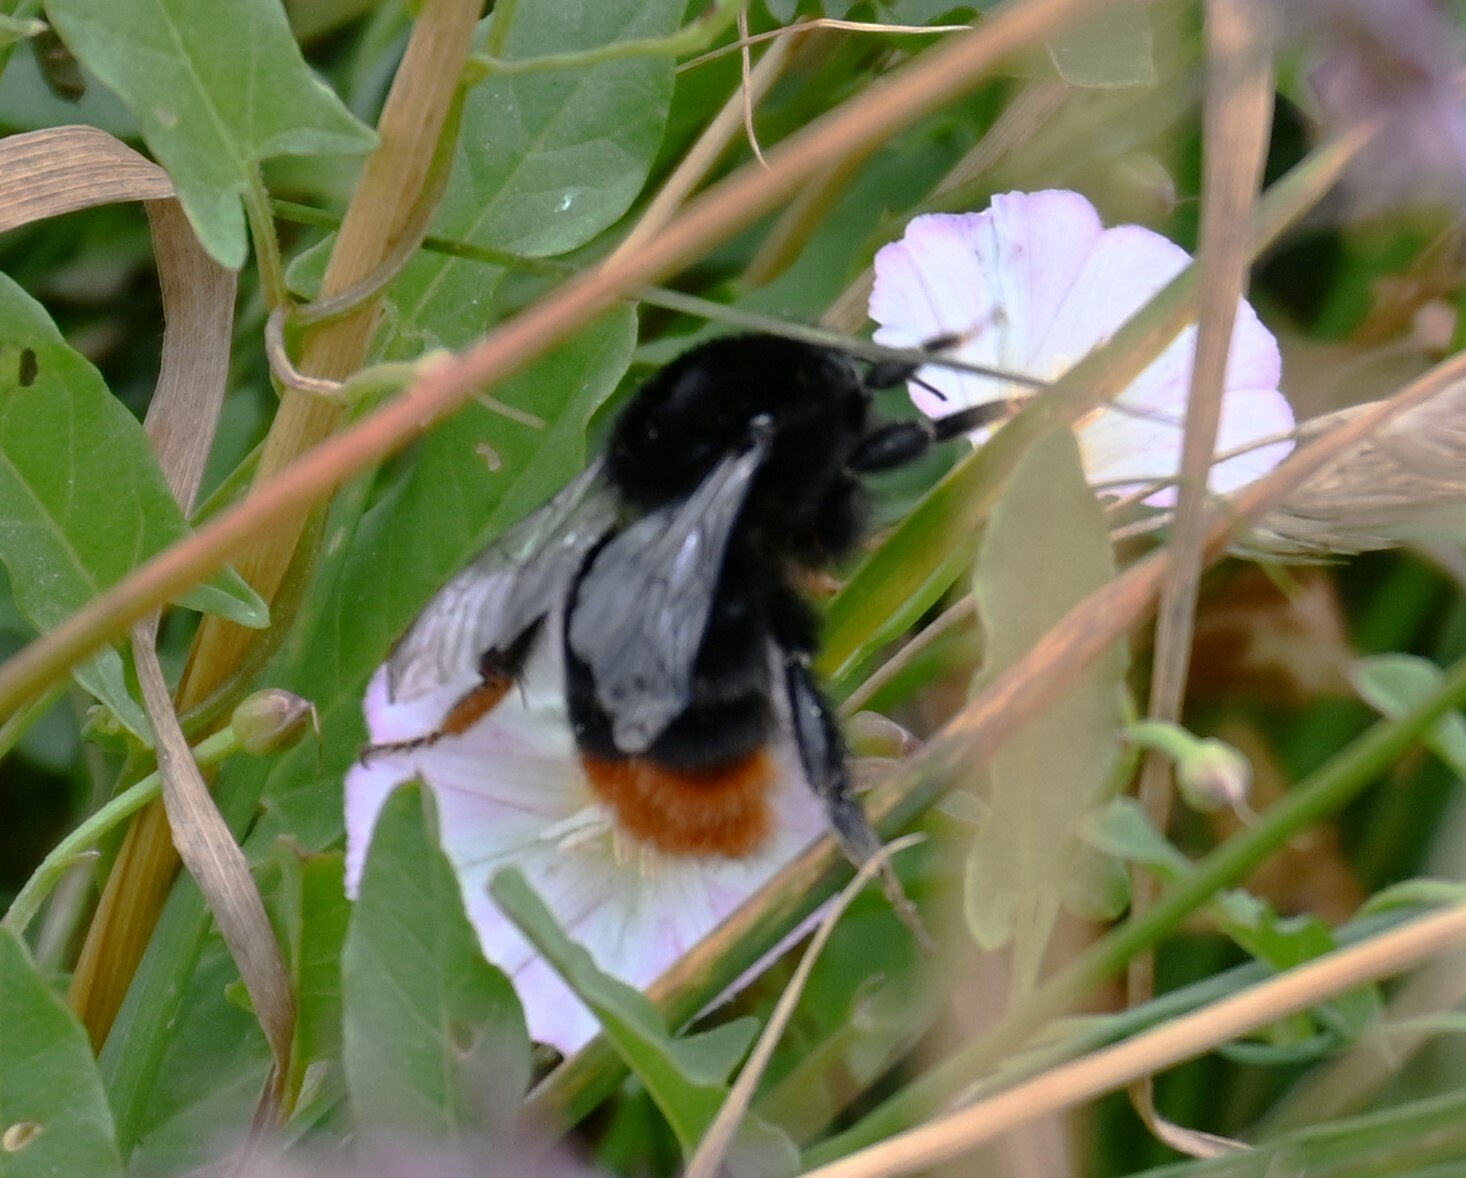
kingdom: Animalia
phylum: Arthropoda
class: Insecta
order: Hymenoptera
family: Apidae
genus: Bombus
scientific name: Bombus lapidarius
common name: Large red-tailed humble-bee
